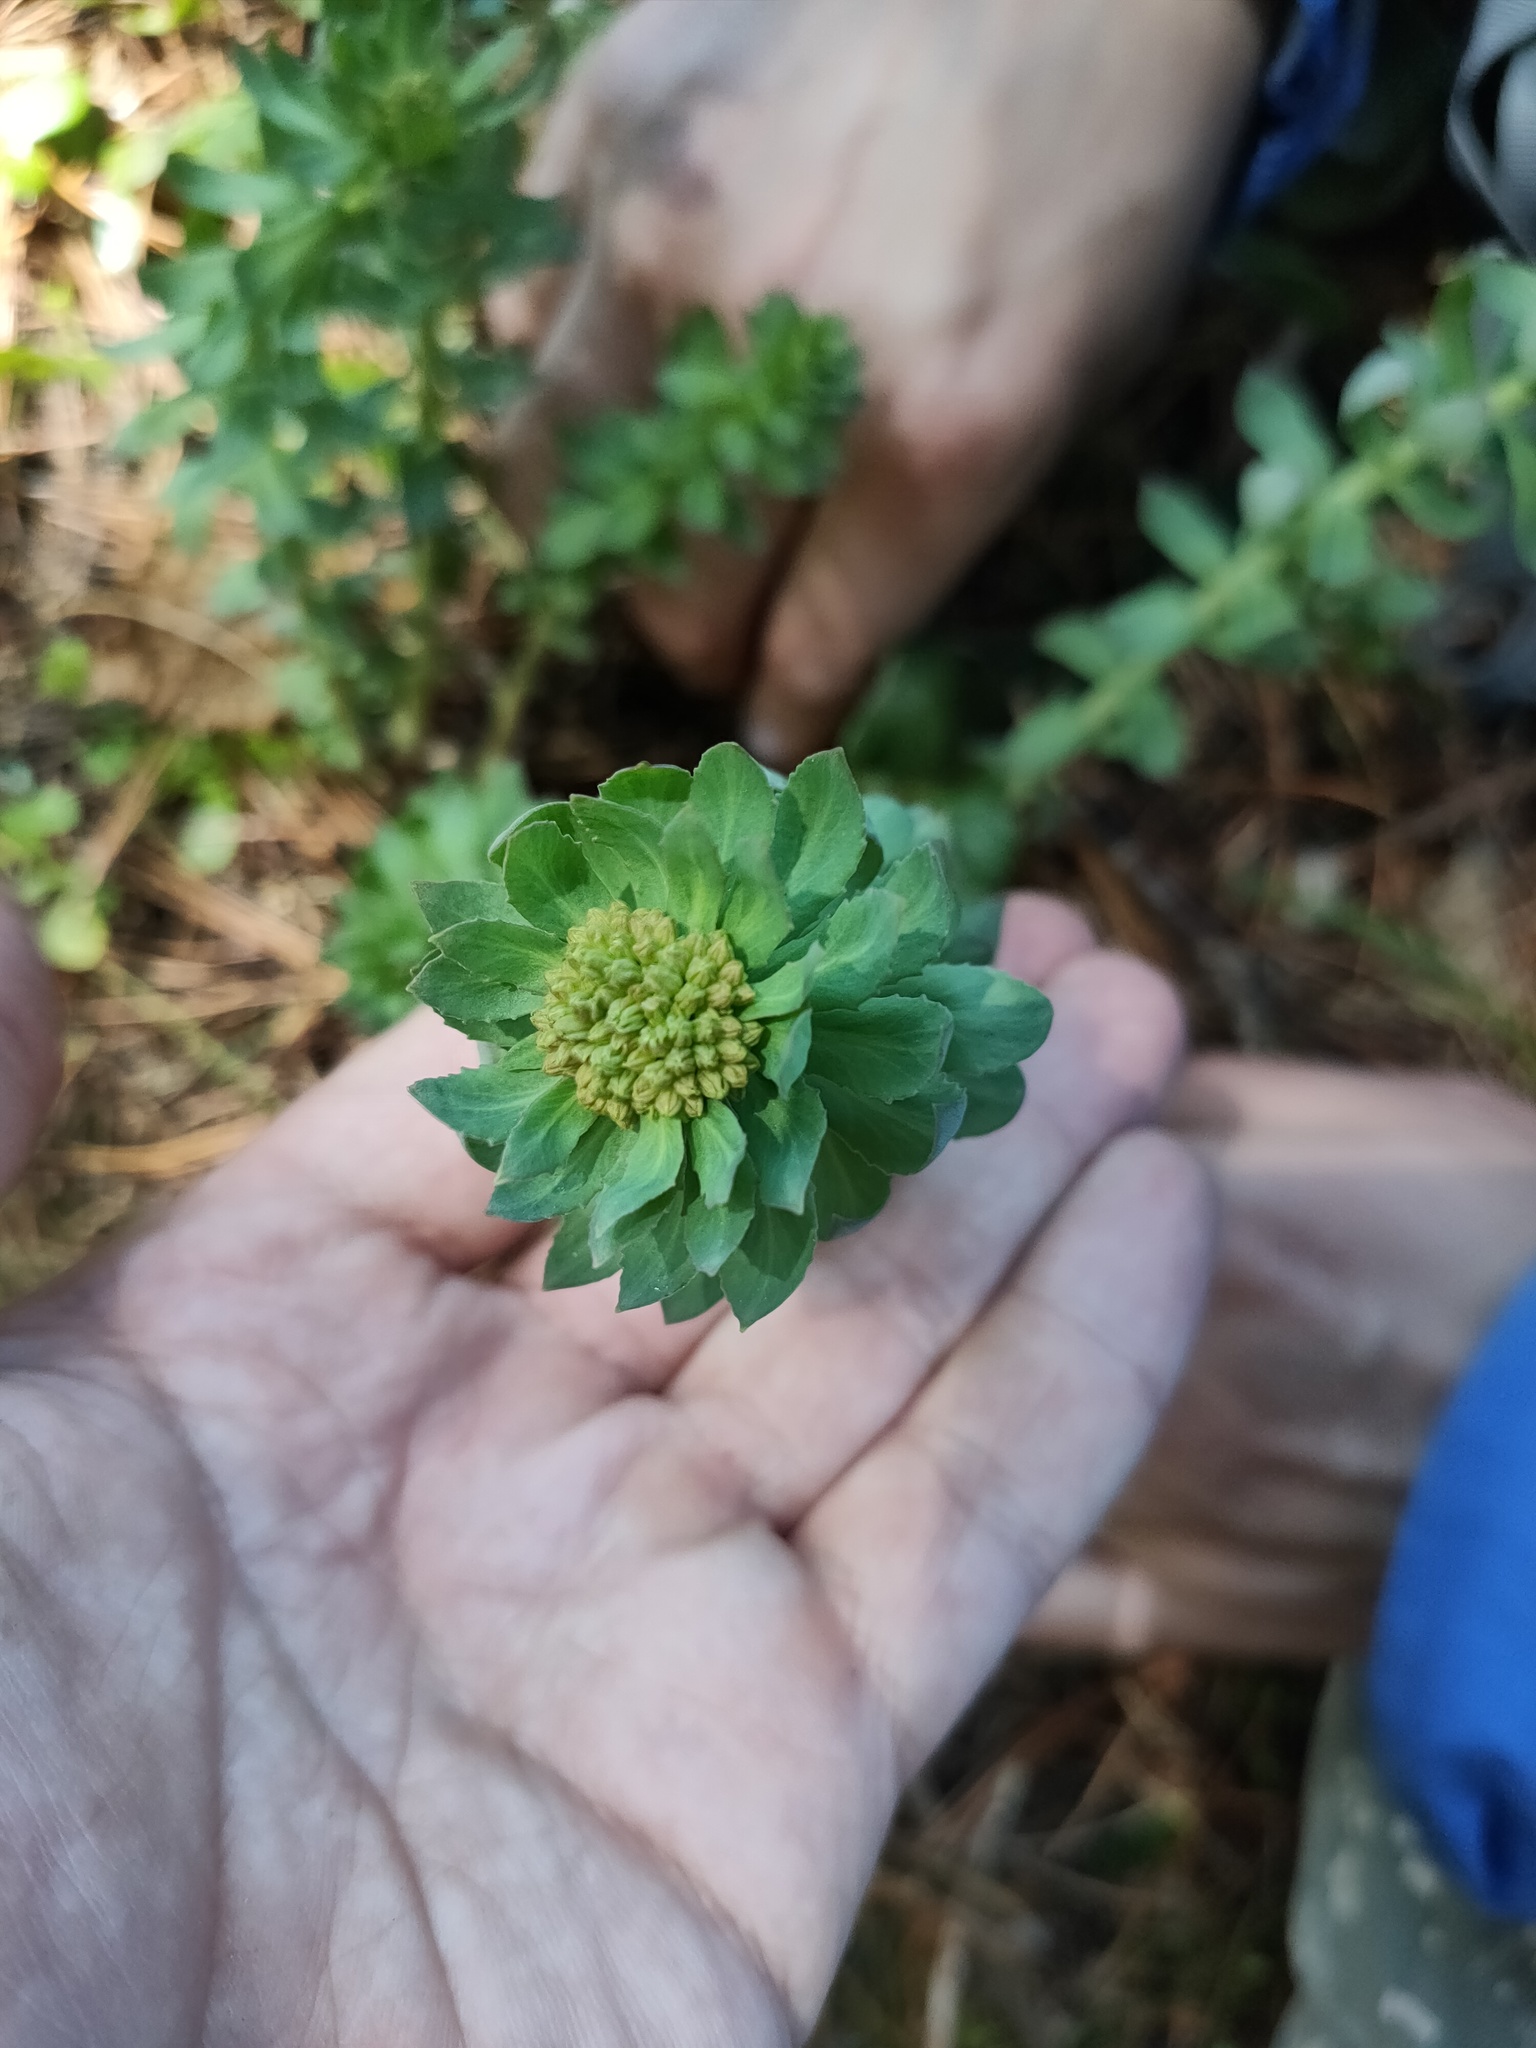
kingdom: Plantae
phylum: Tracheophyta
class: Magnoliopsida
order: Saxifragales
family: Crassulaceae
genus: Rhodiola
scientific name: Rhodiola rosea
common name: Roseroot
